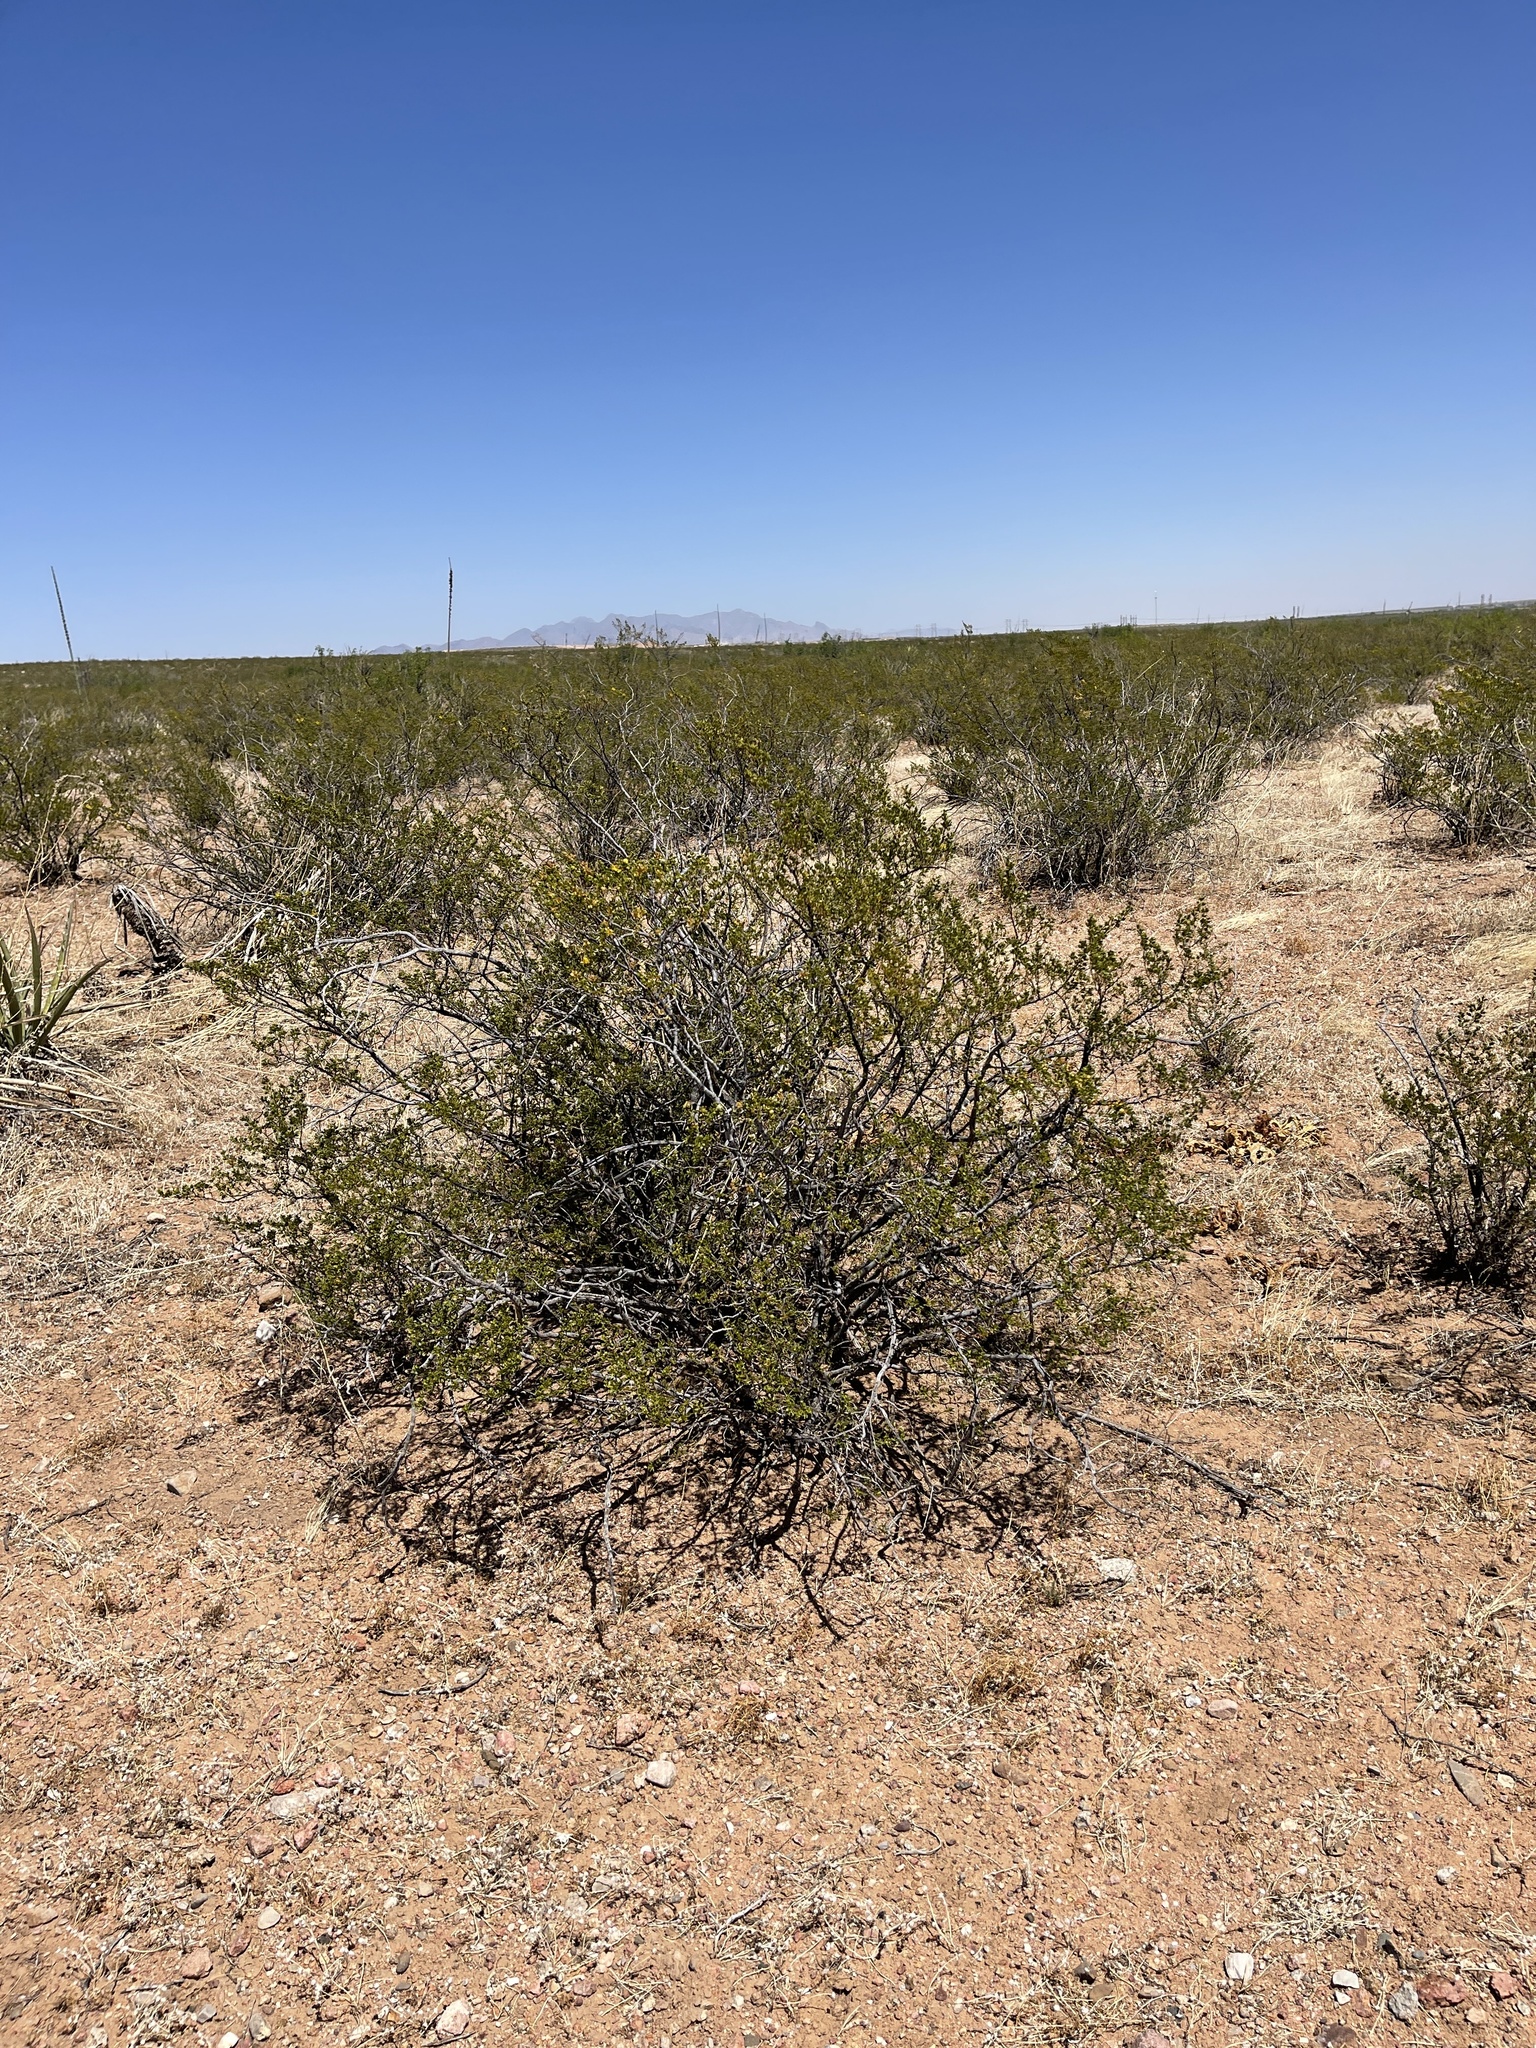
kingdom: Plantae
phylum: Tracheophyta
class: Magnoliopsida
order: Zygophyllales
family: Zygophyllaceae
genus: Larrea
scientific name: Larrea tridentata
